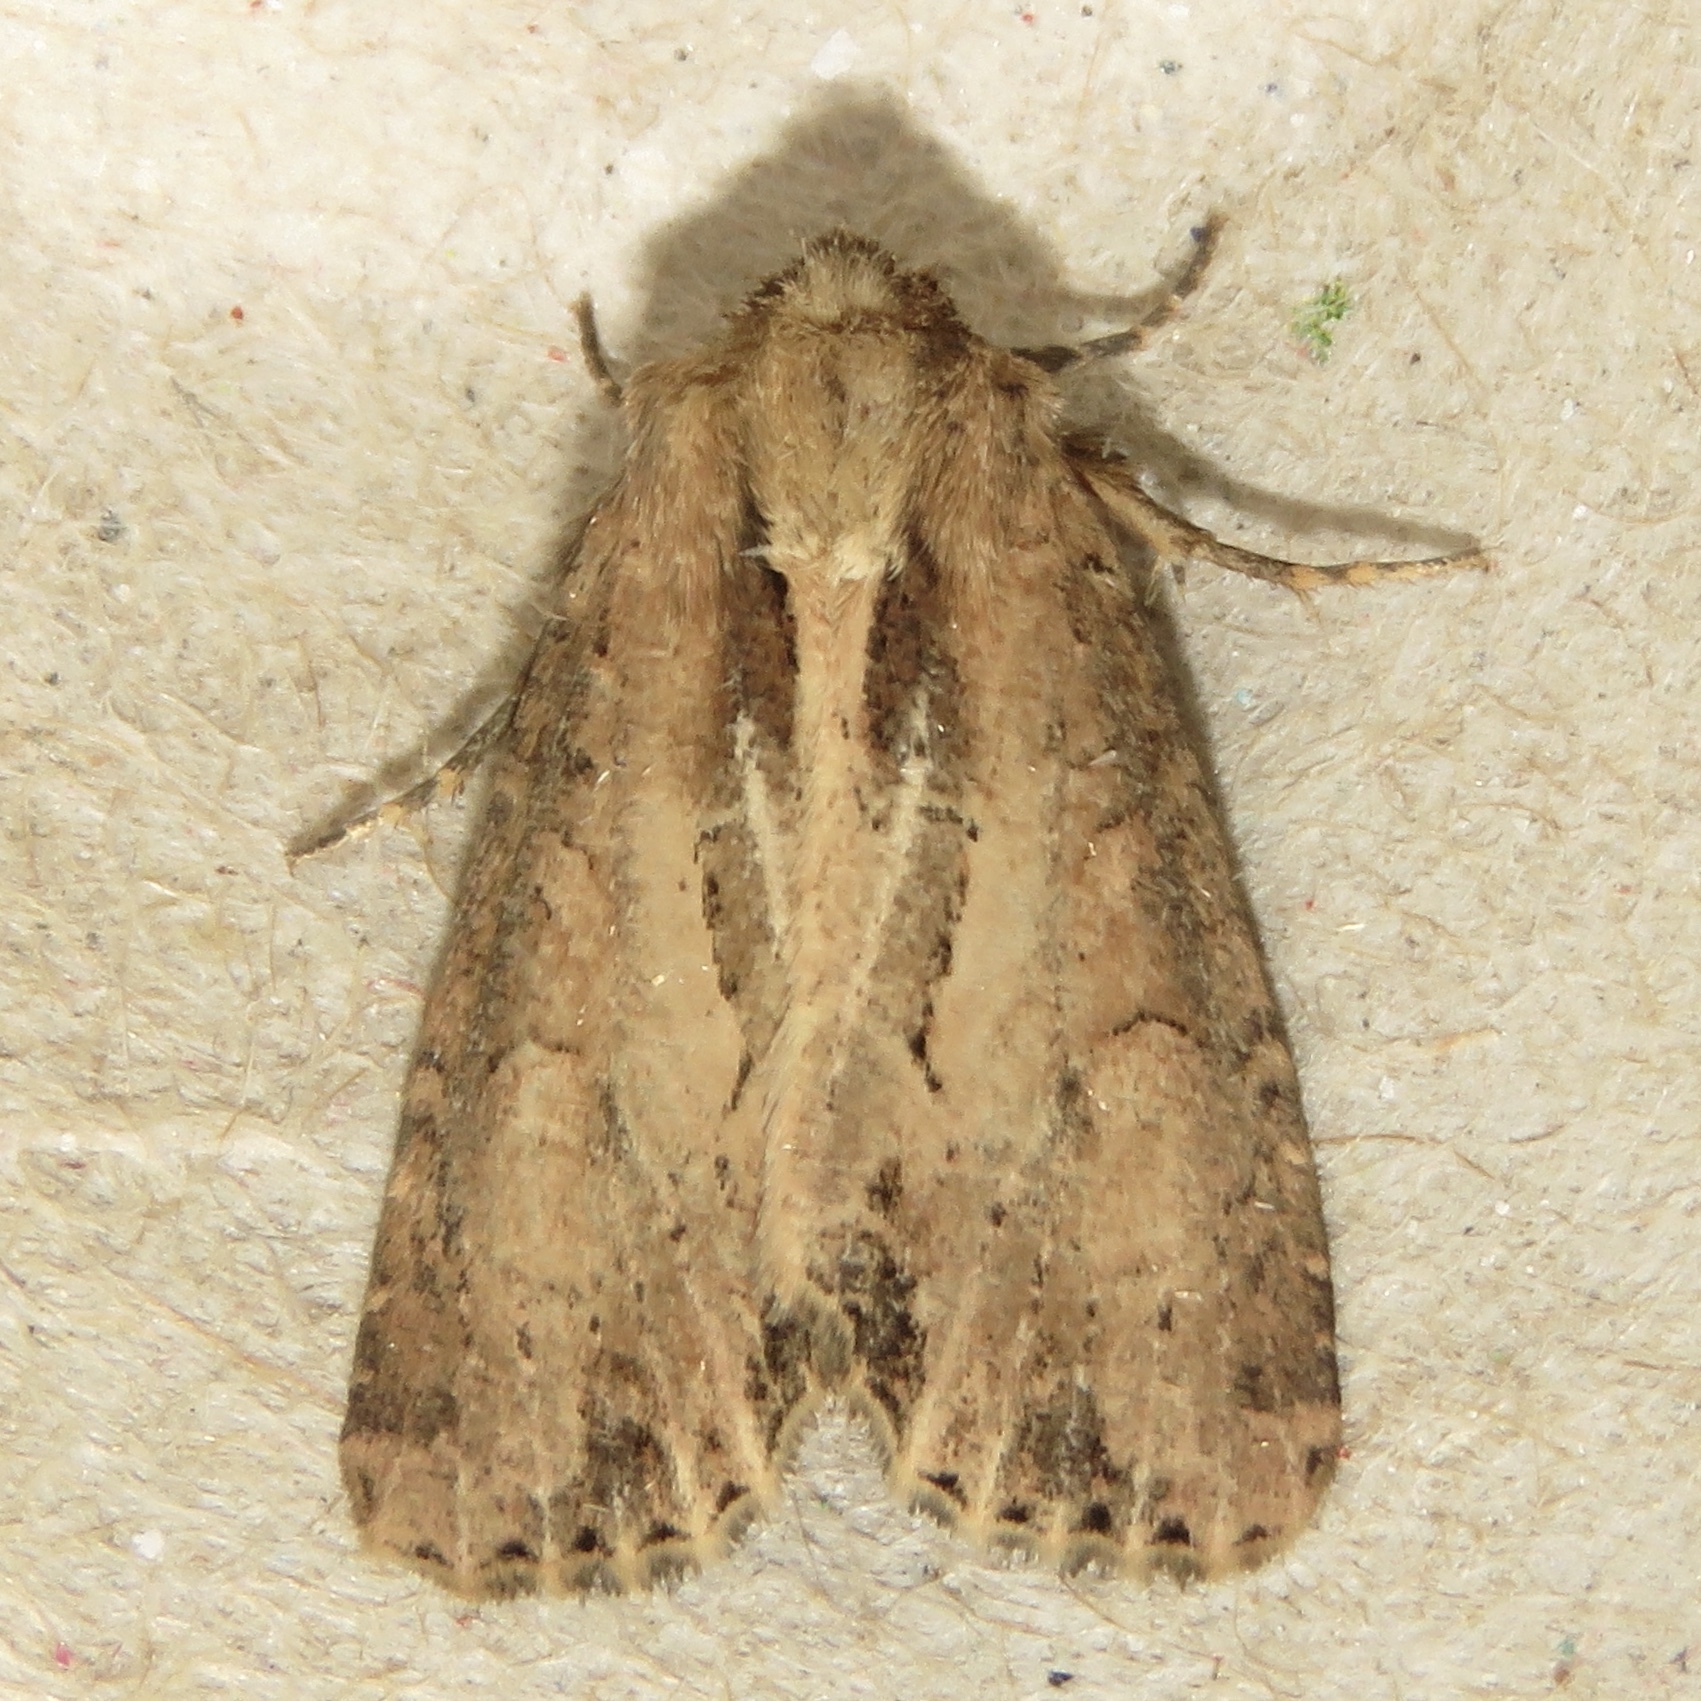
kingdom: Animalia
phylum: Arthropoda
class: Insecta
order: Lepidoptera
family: Noctuidae
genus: Xylomoia
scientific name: Xylomoia chagnoni
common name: Reed canary grass borer moth
